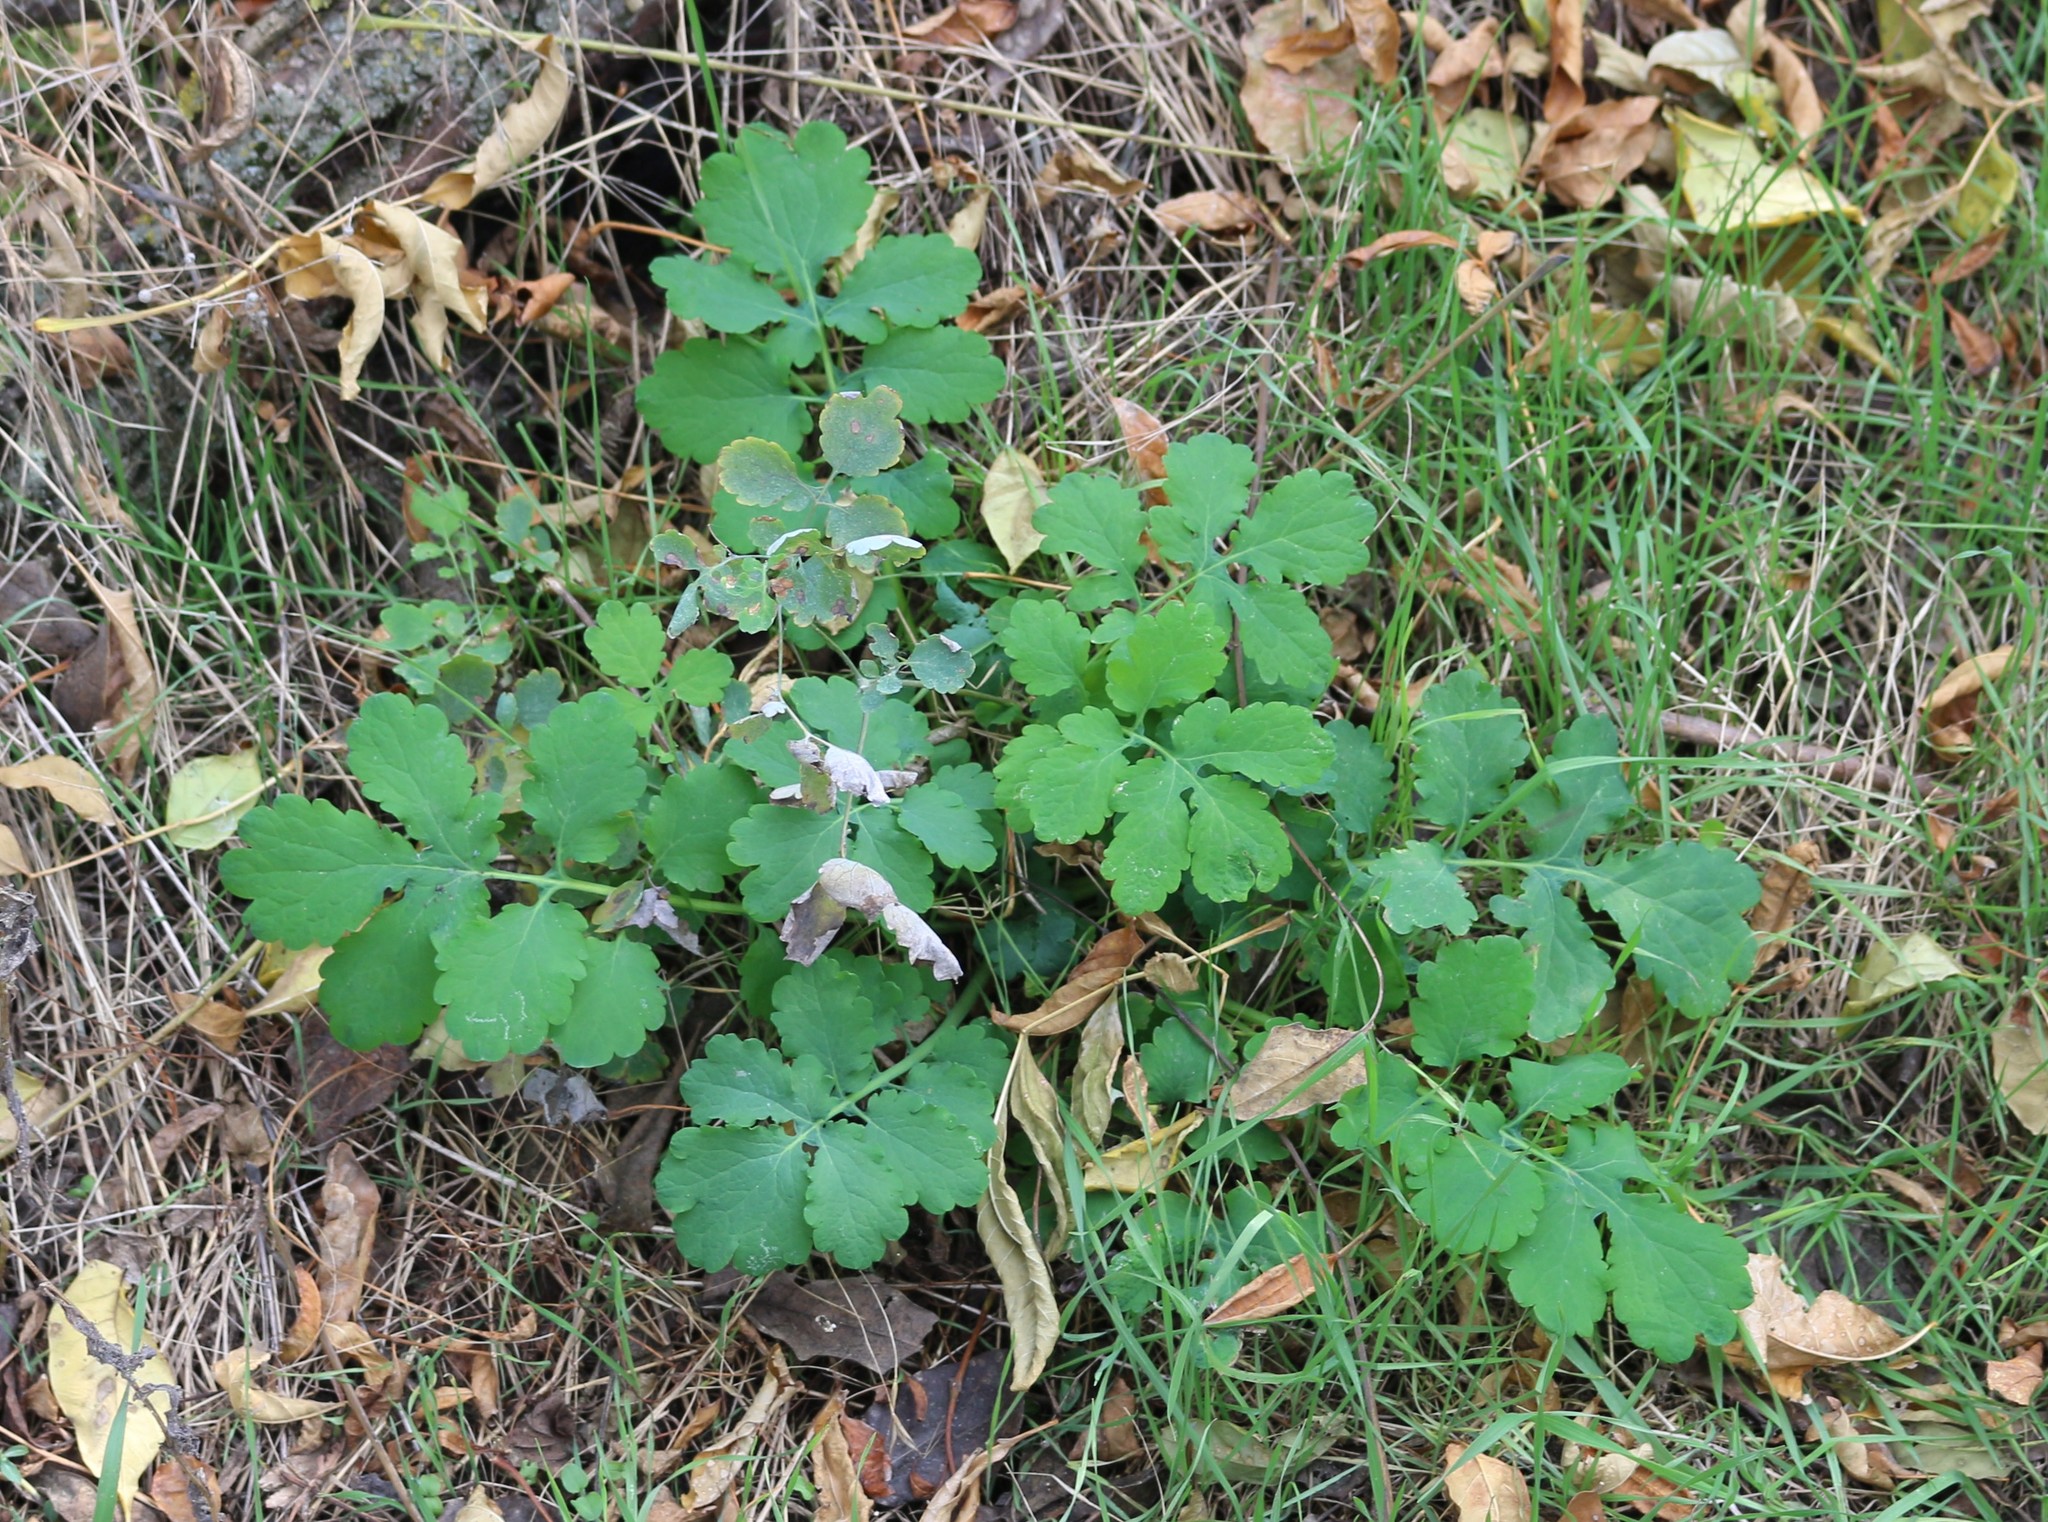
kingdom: Plantae
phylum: Tracheophyta
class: Magnoliopsida
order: Ranunculales
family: Papaveraceae
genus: Chelidonium
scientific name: Chelidonium majus
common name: Greater celandine
